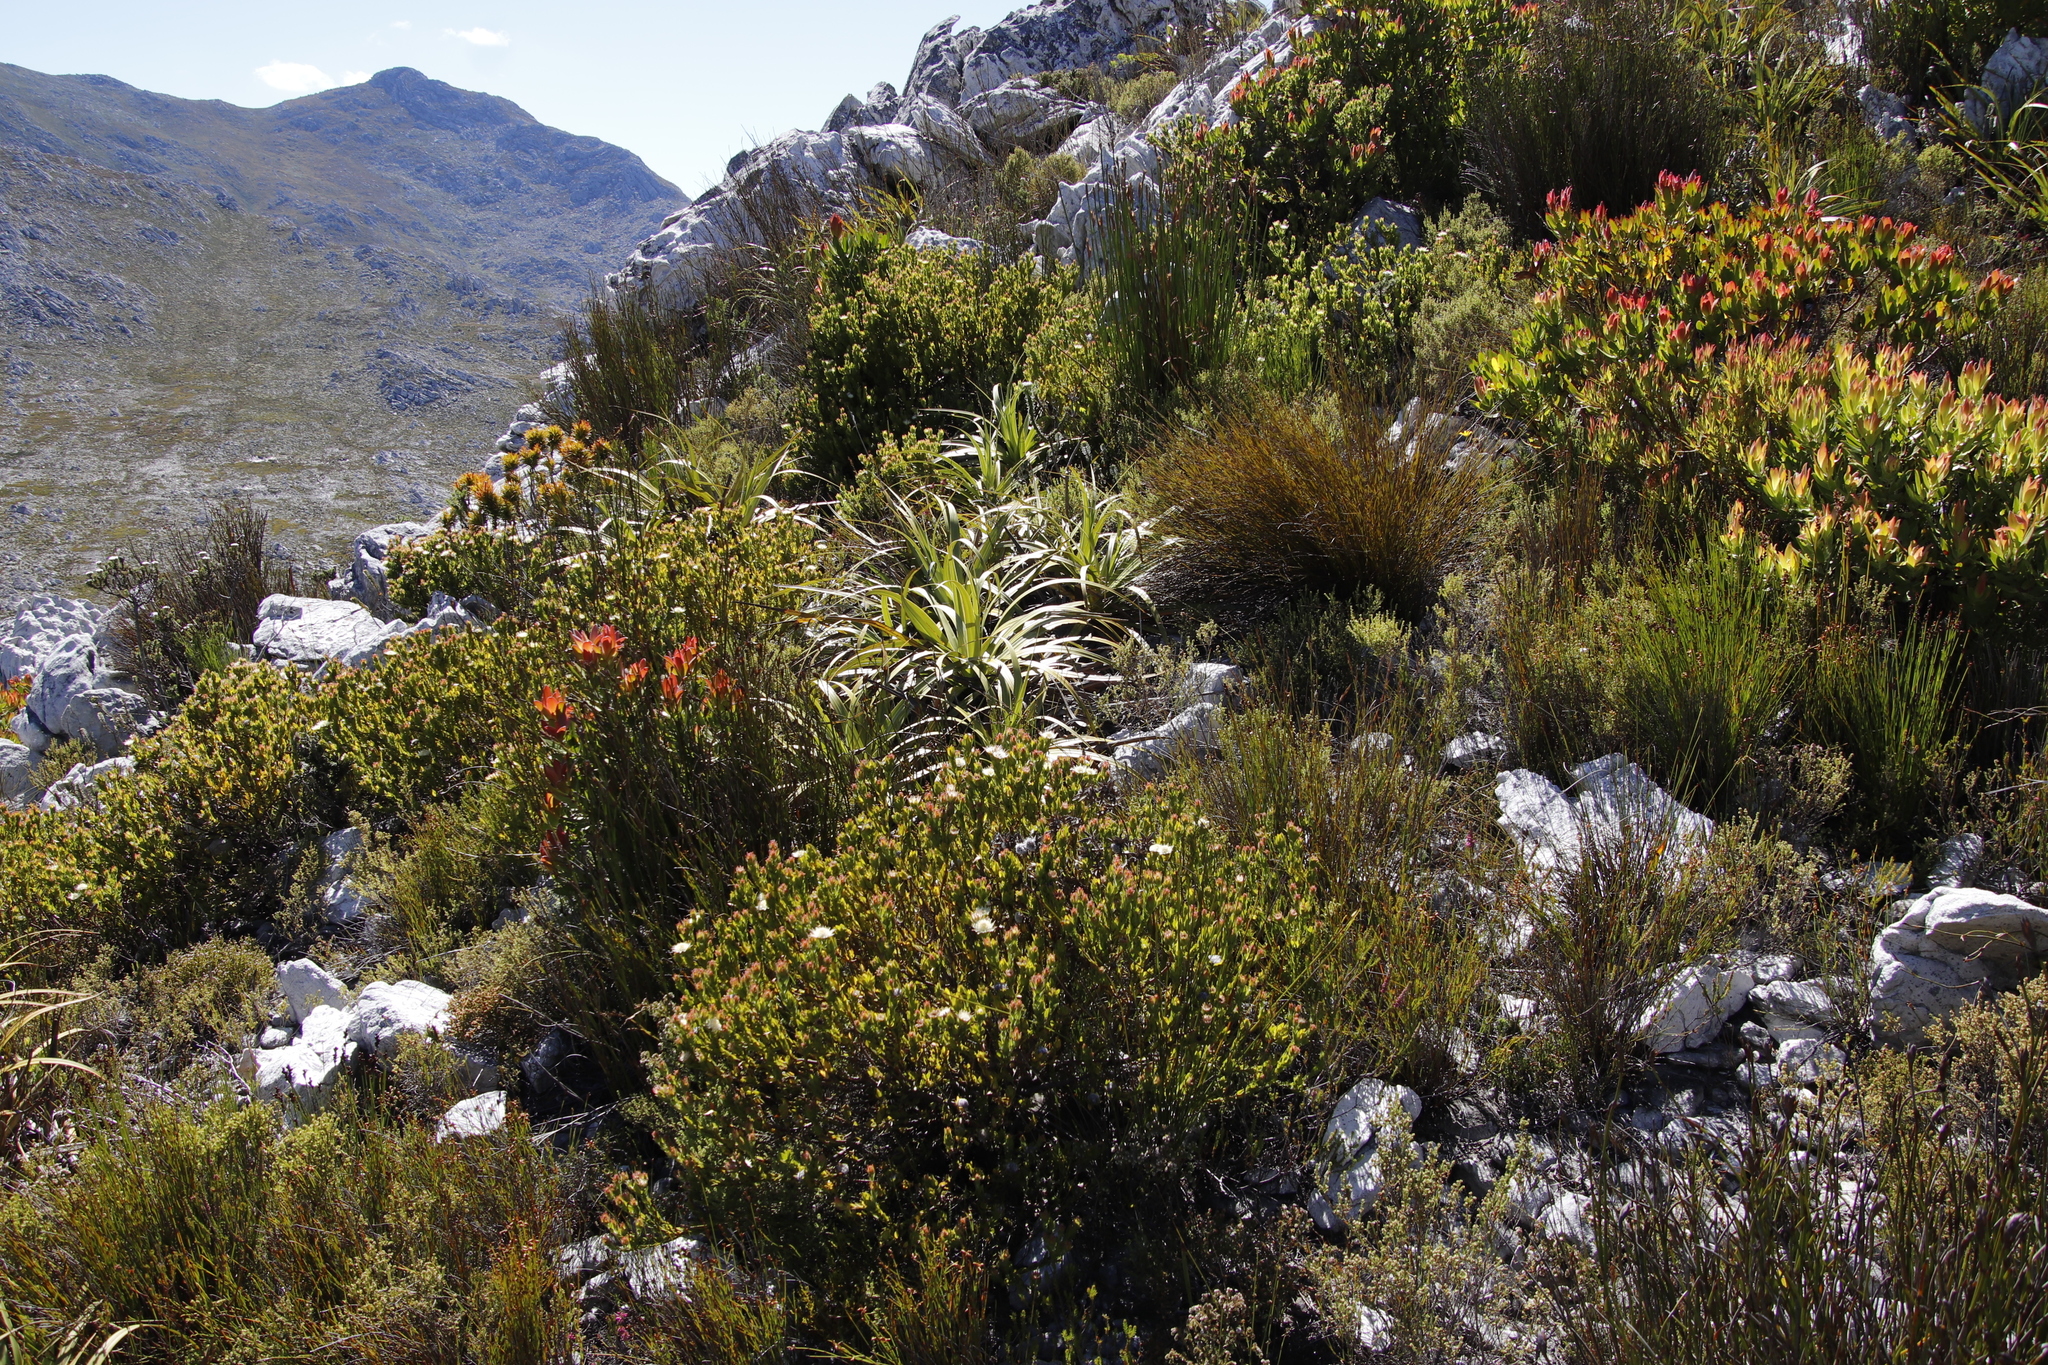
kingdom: Plantae
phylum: Tracheophyta
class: Magnoliopsida
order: Proteales
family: Proteaceae
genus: Diastella
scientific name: Diastella thymelaeoides
